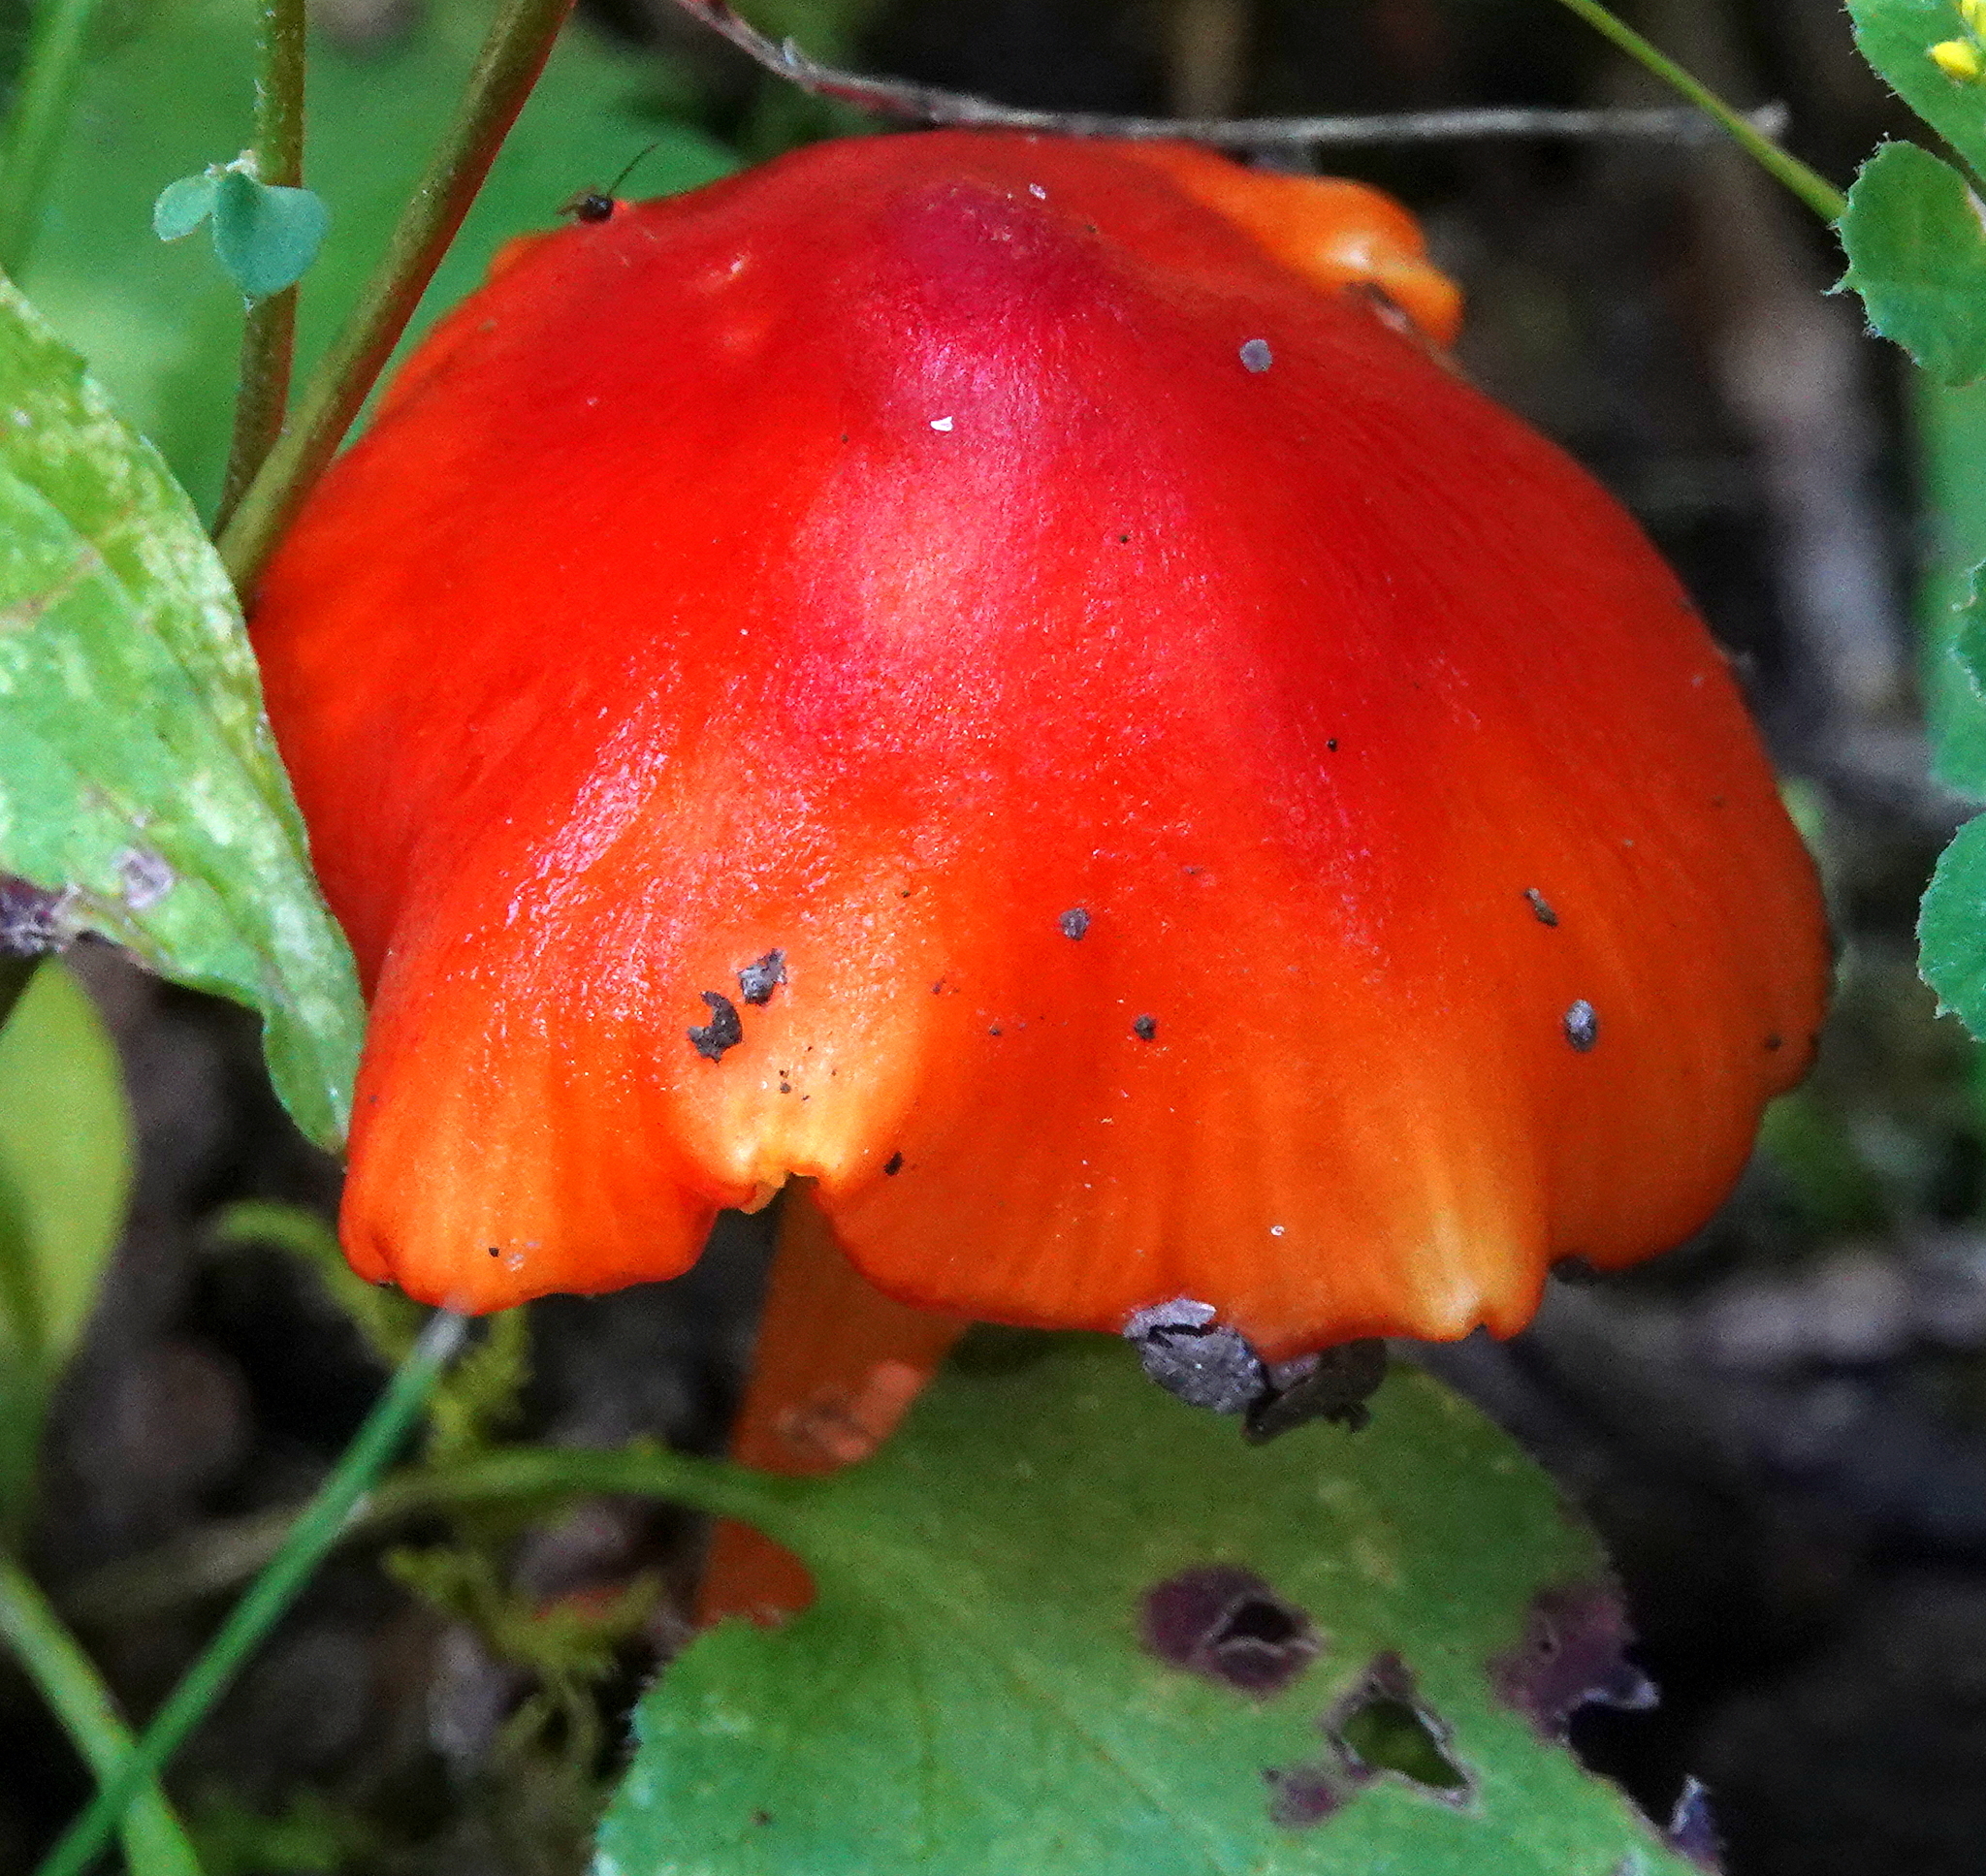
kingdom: Fungi
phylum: Basidiomycota
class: Agaricomycetes
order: Agaricales
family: Hygrophoraceae
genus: Hygrocybe
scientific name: Hygrocybe conica
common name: Blackening wax-cap
